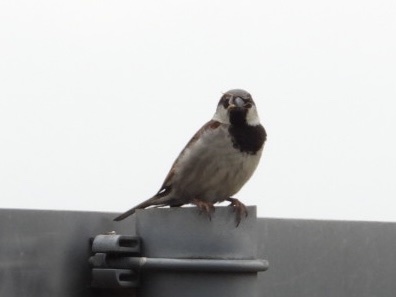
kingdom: Animalia
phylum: Chordata
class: Aves
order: Passeriformes
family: Passeridae
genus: Passer
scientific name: Passer domesticus
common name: House sparrow
